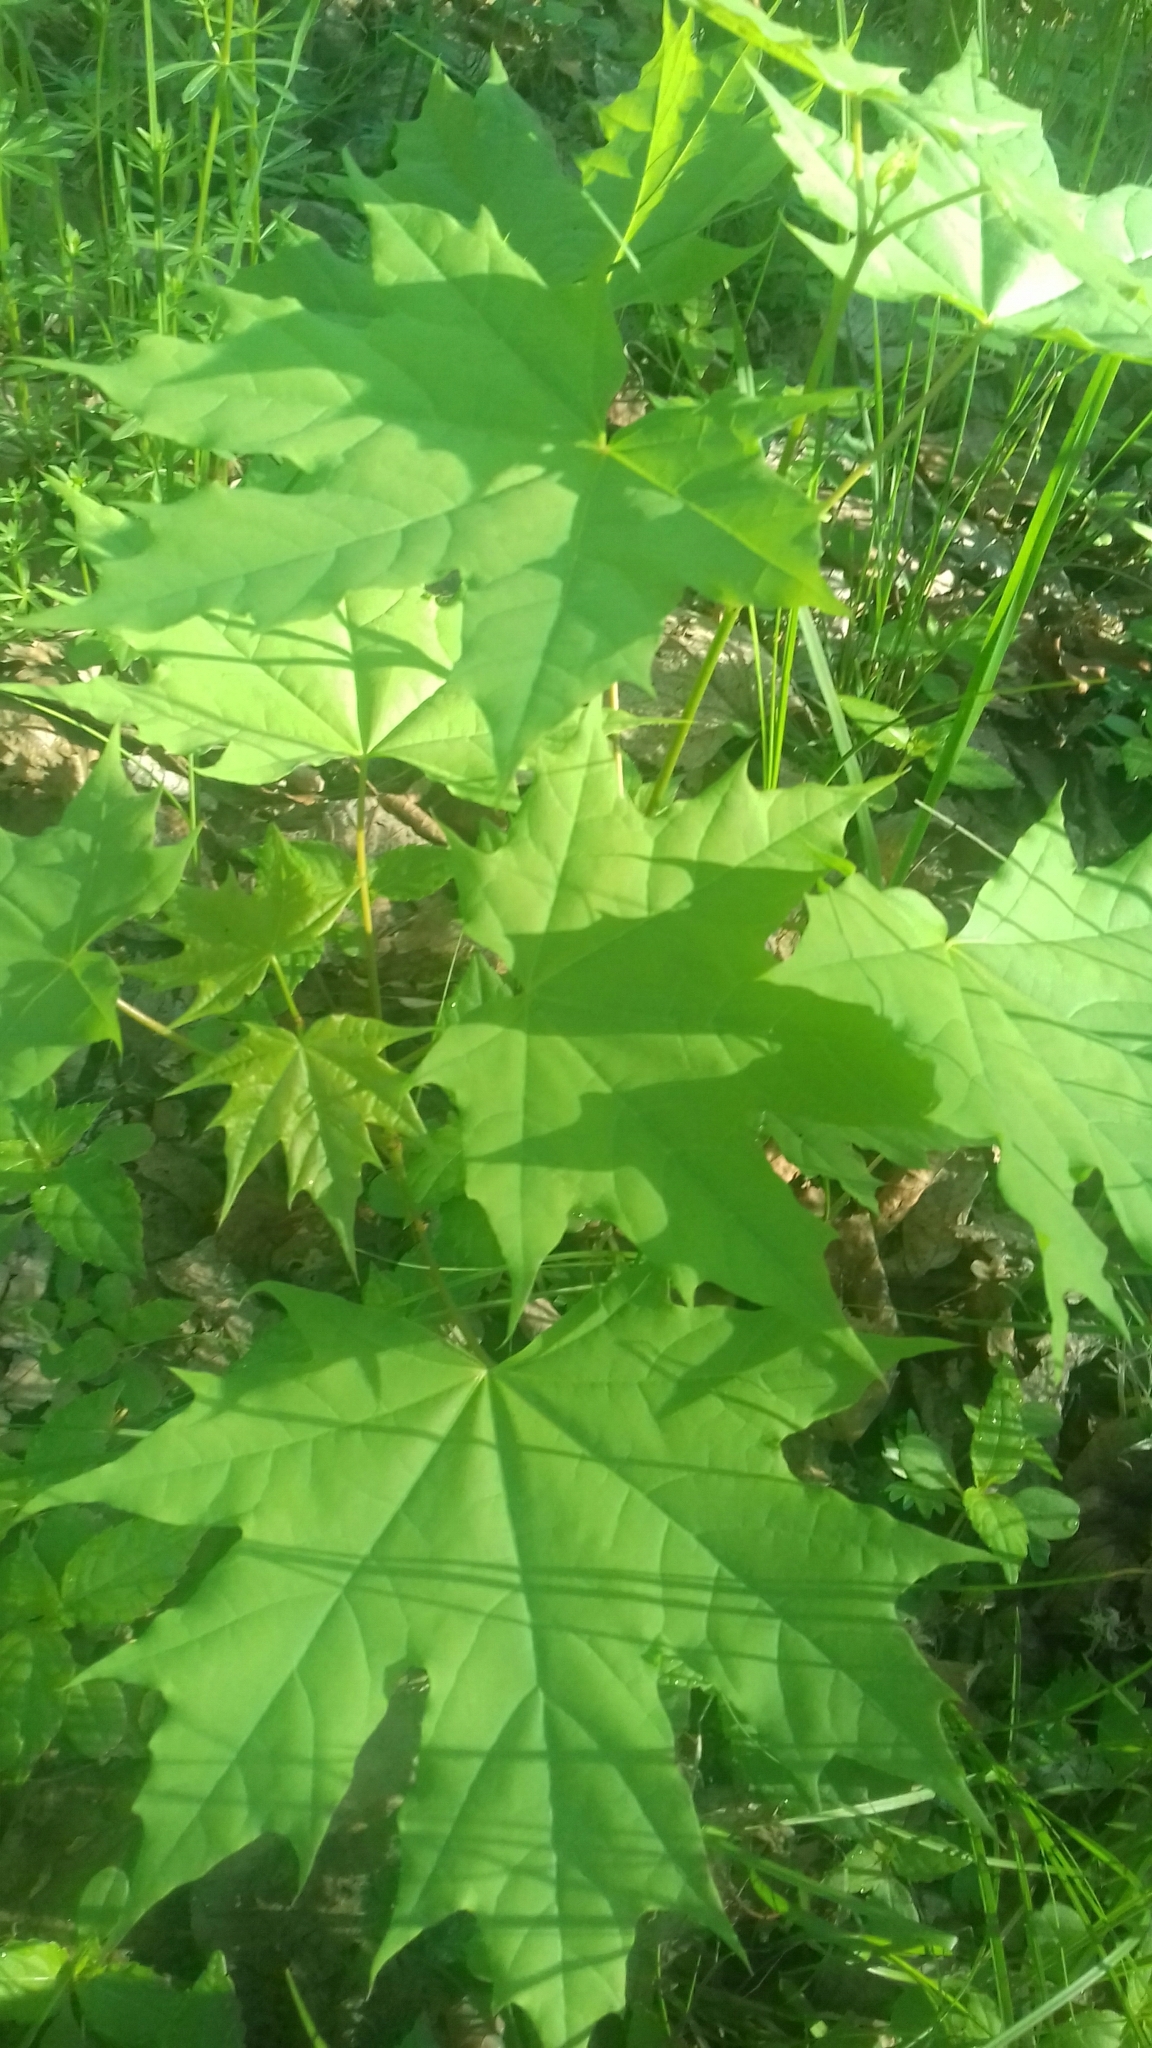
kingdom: Plantae
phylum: Tracheophyta
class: Magnoliopsida
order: Sapindales
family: Sapindaceae
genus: Acer
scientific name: Acer platanoides
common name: Norway maple
